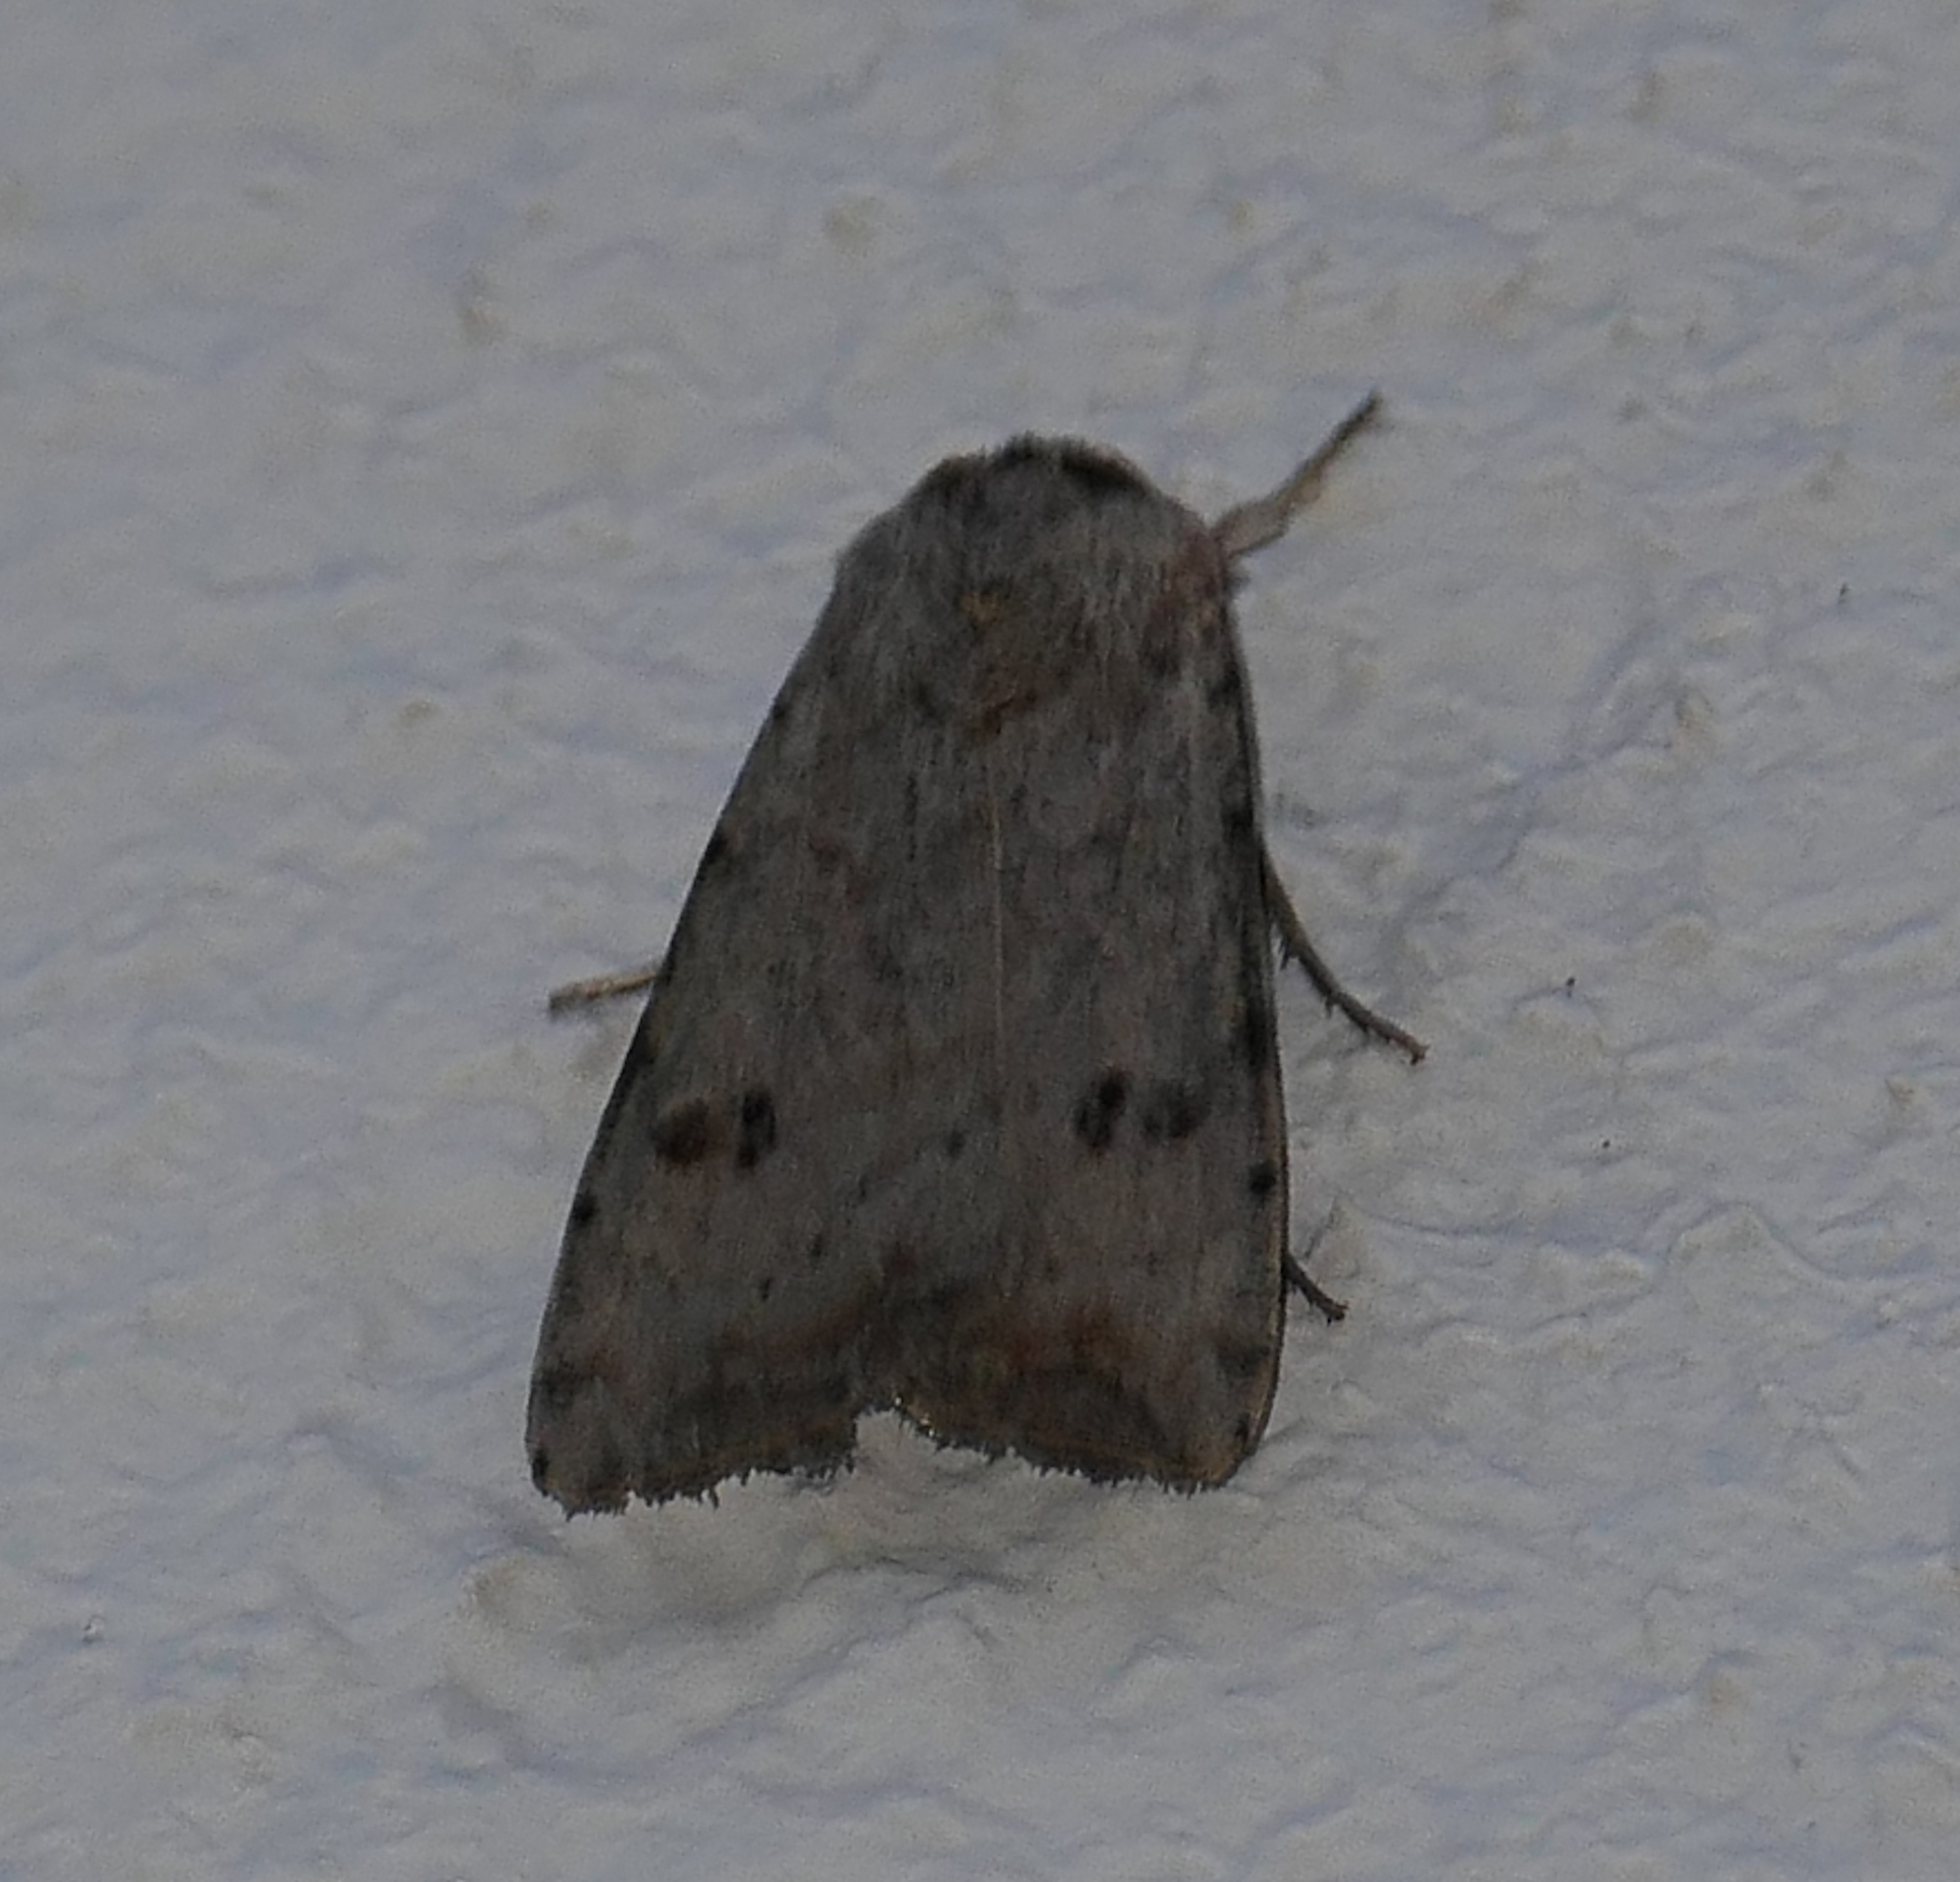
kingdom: Animalia
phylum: Arthropoda
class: Insecta
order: Lepidoptera
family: Noctuidae
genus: Anicla
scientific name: Anicla infecta
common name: Green cutworm
